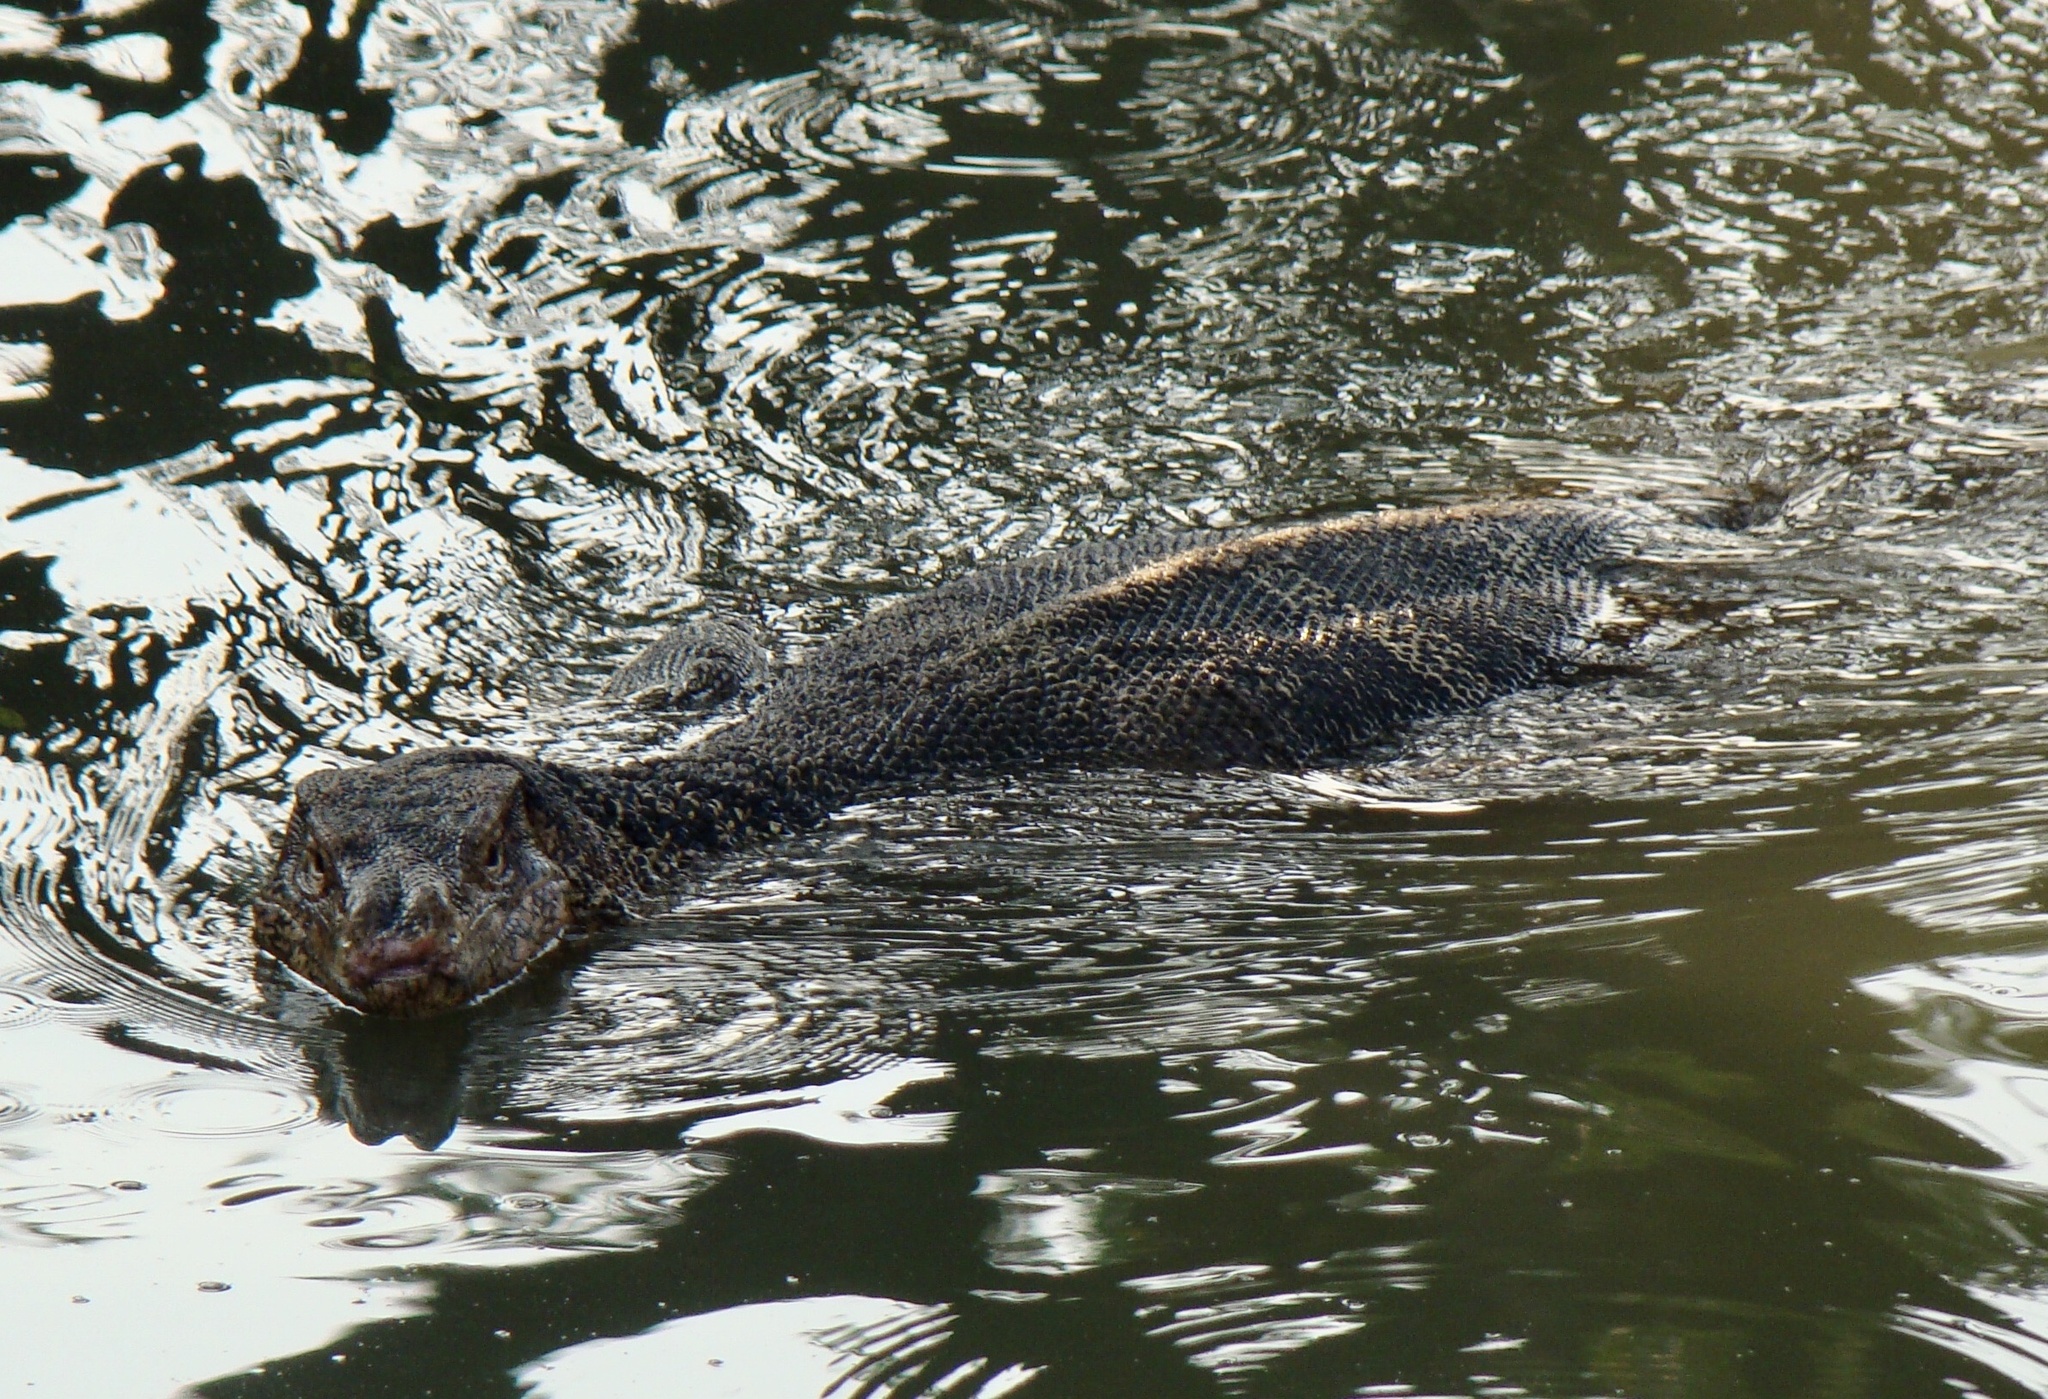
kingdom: Animalia
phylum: Chordata
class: Squamata
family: Varanidae
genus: Varanus
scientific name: Varanus salvator
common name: Common water monitor
